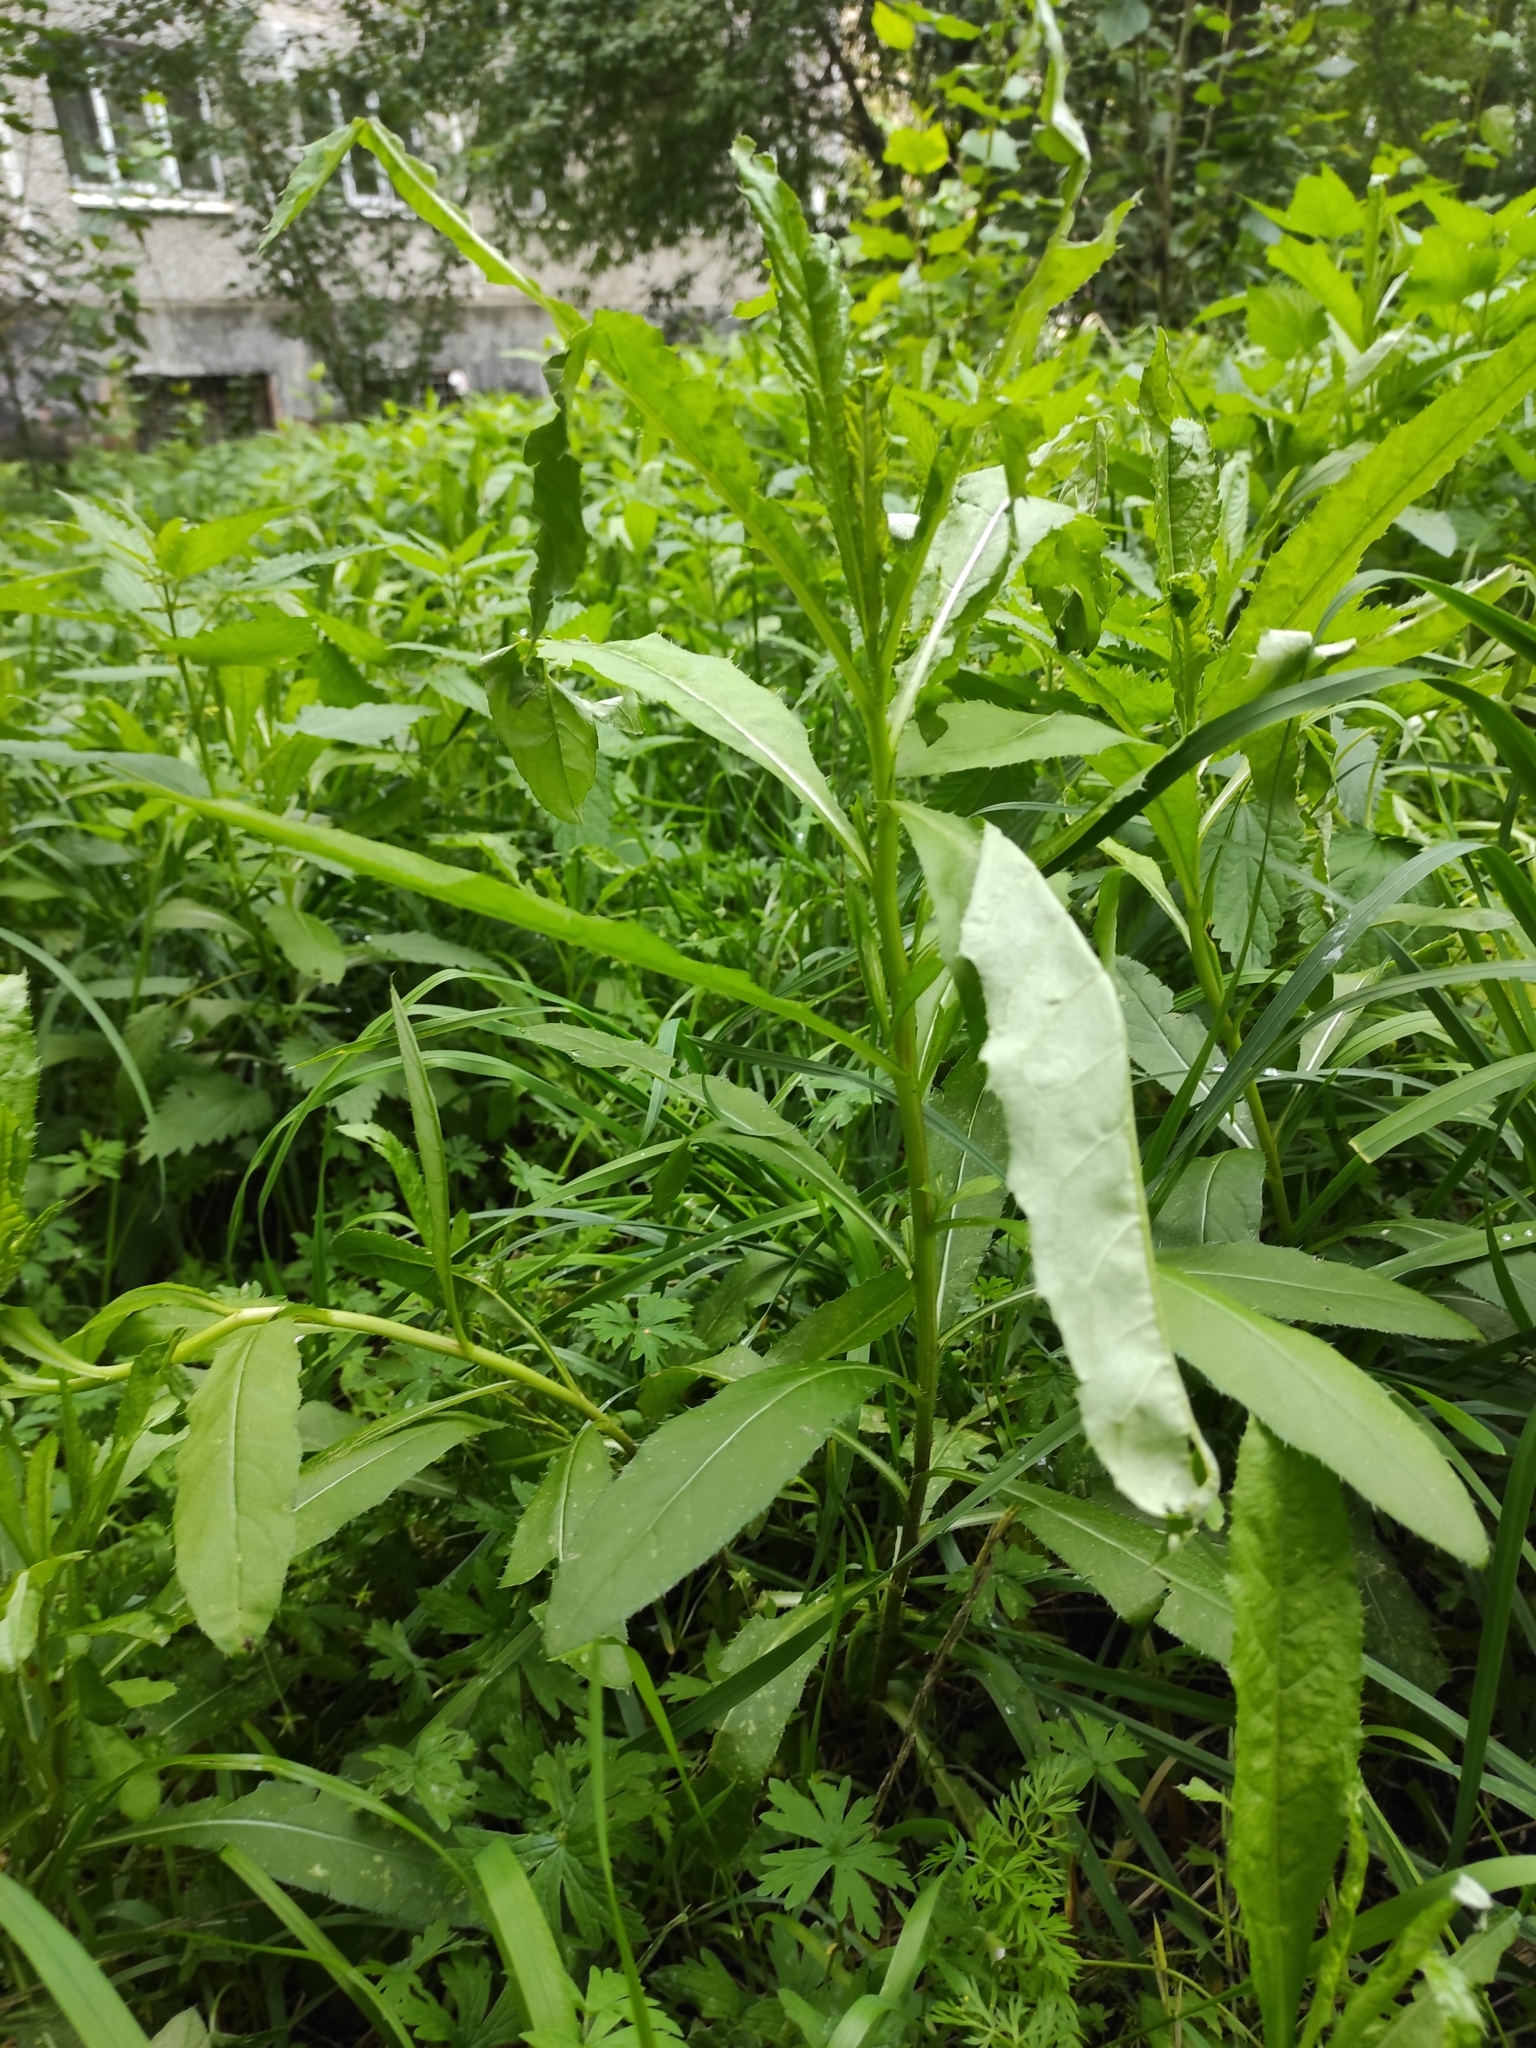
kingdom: Plantae
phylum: Tracheophyta
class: Magnoliopsida
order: Asterales
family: Asteraceae
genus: Cirsium
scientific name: Cirsium arvense
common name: Creeping thistle
